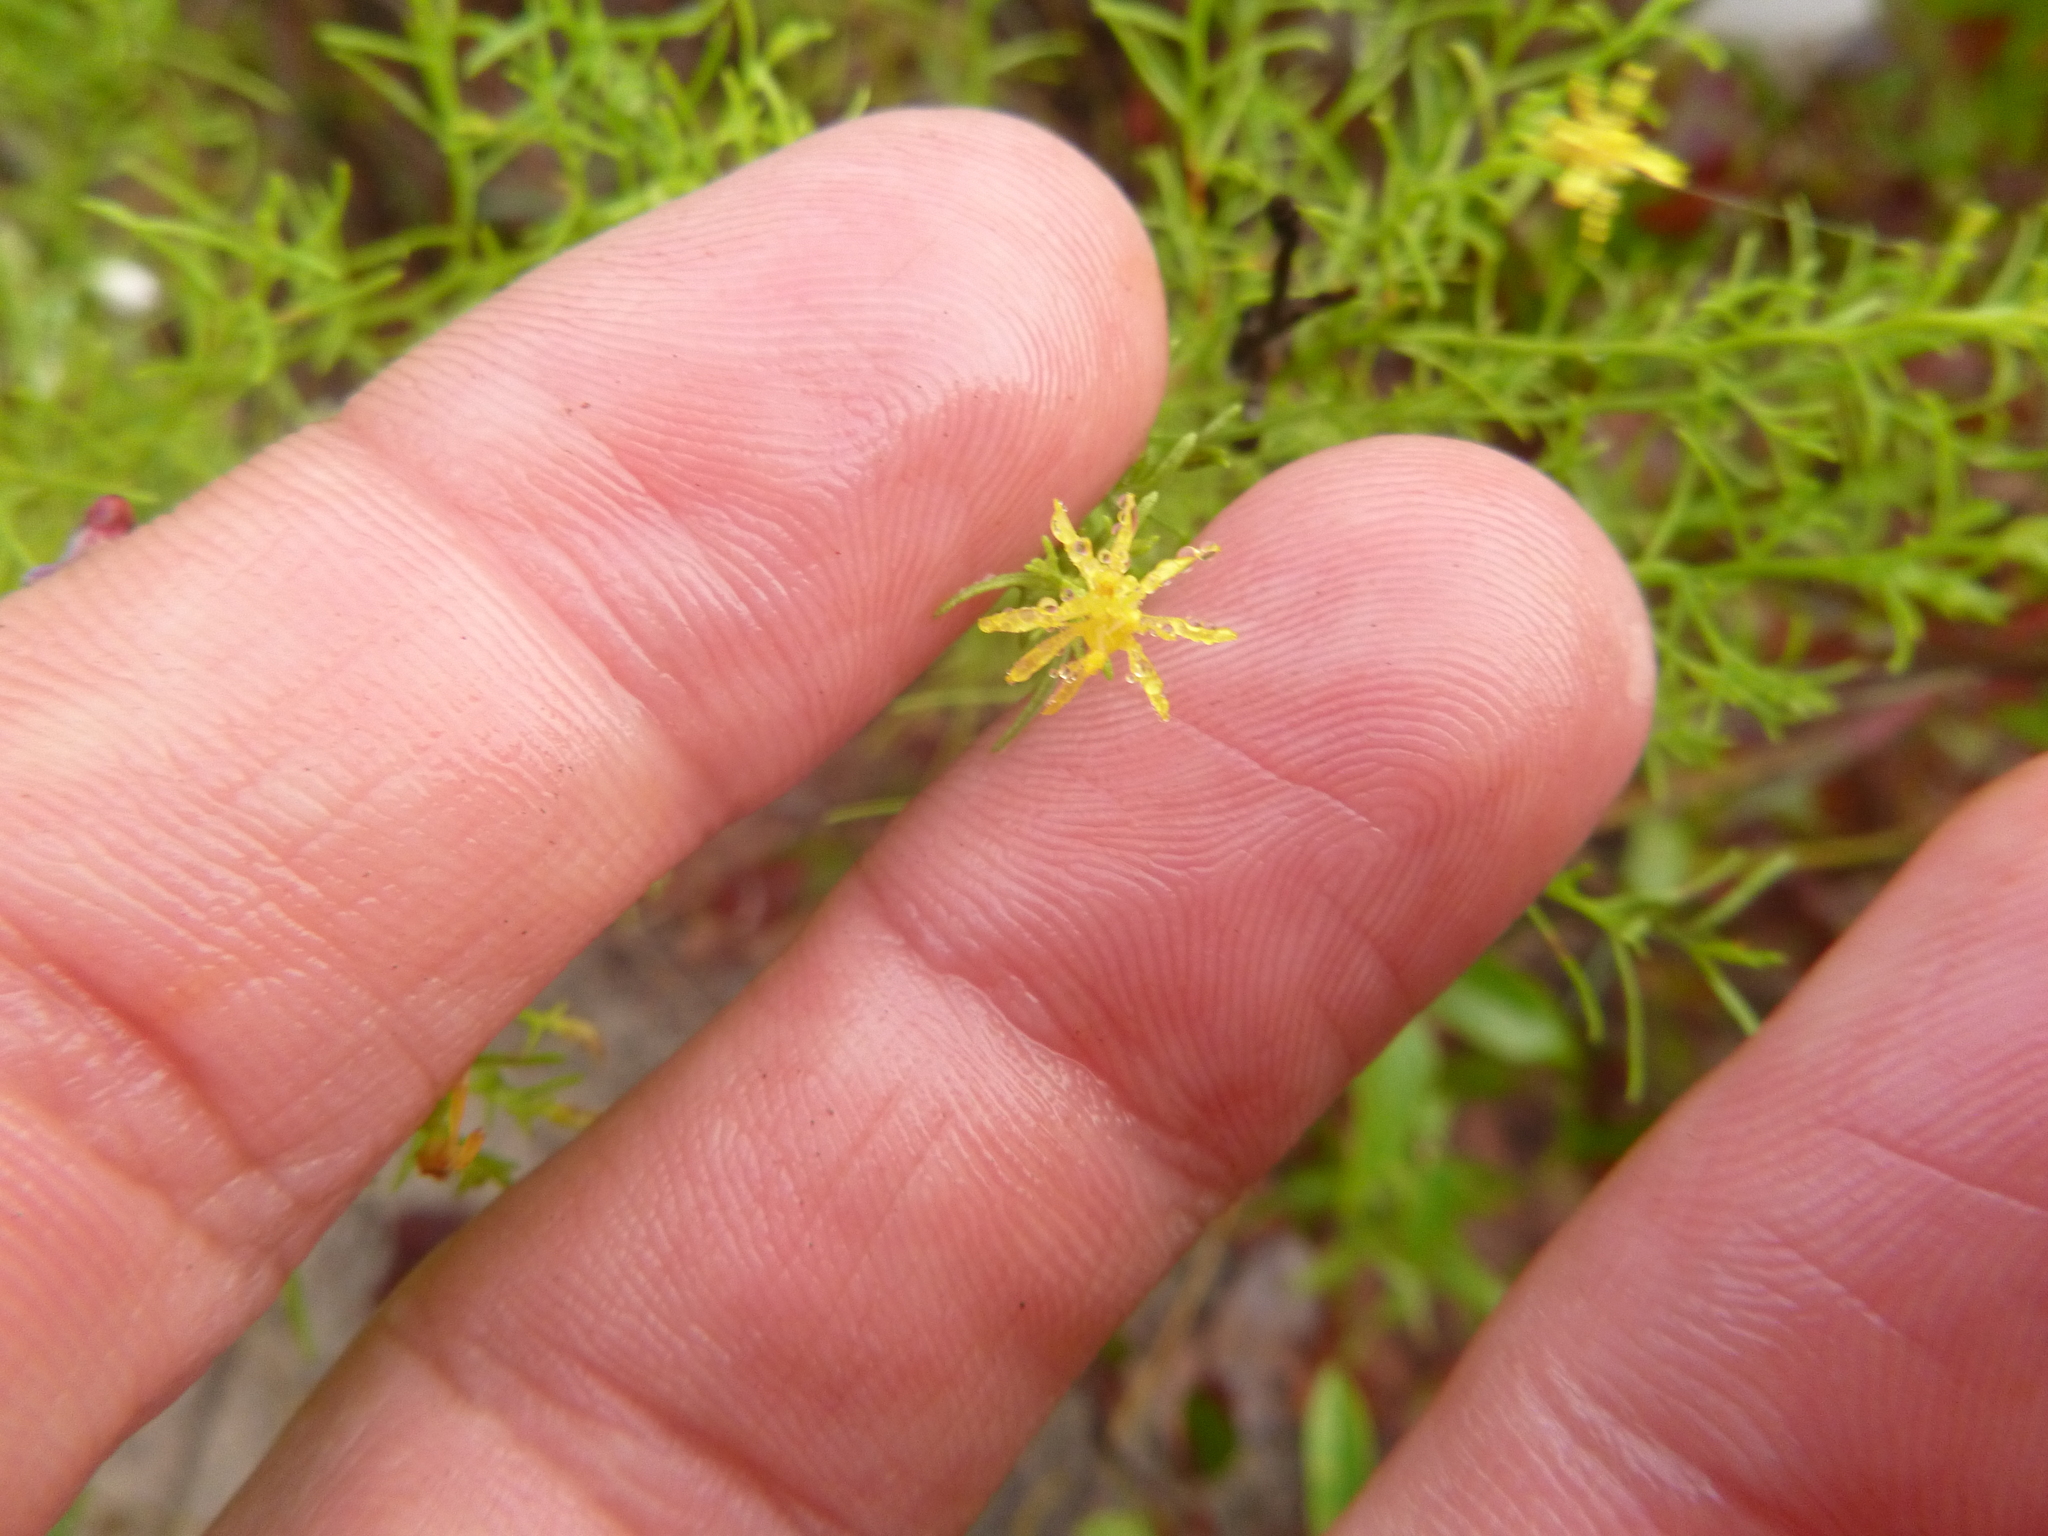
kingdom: Plantae
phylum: Tracheophyta
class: Magnoliopsida
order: Asterales
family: Asteraceae
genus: Euthamia
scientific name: Euthamia caroliniana
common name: Coastal plain goldentop
